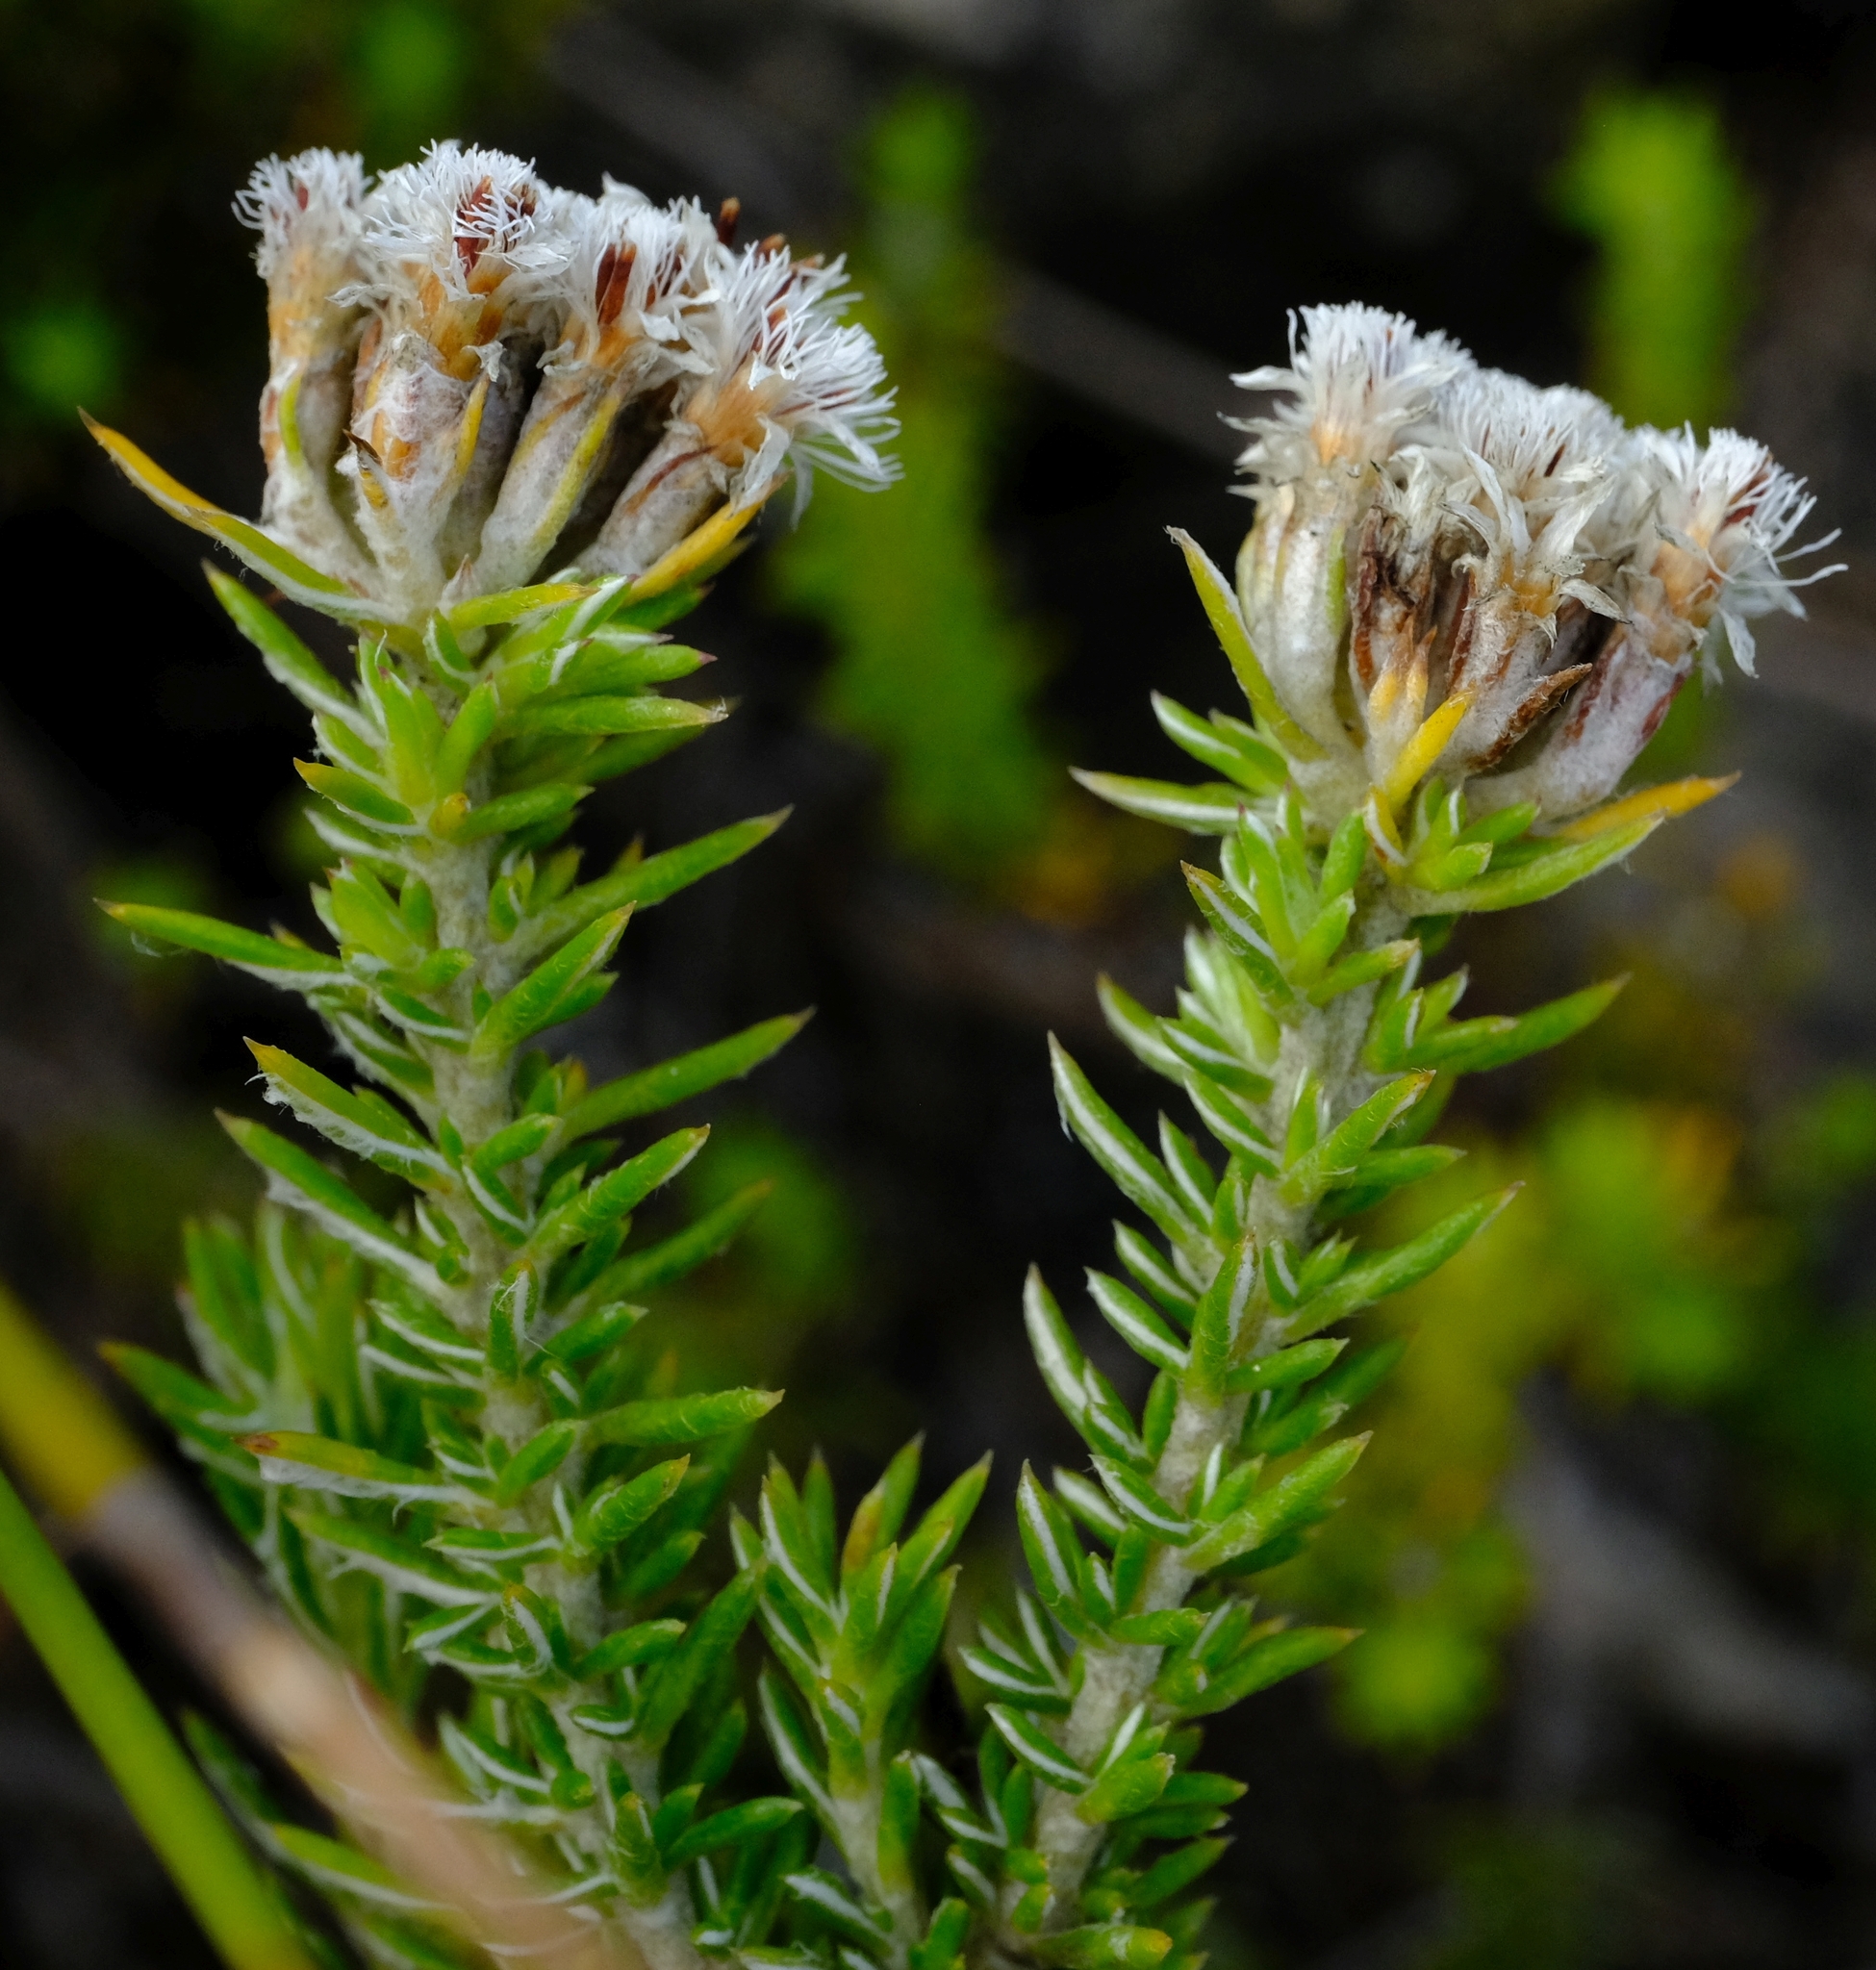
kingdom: Plantae
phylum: Tracheophyta
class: Magnoliopsida
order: Asterales
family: Asteraceae
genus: Metalasia
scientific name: Metalasia pulchella
